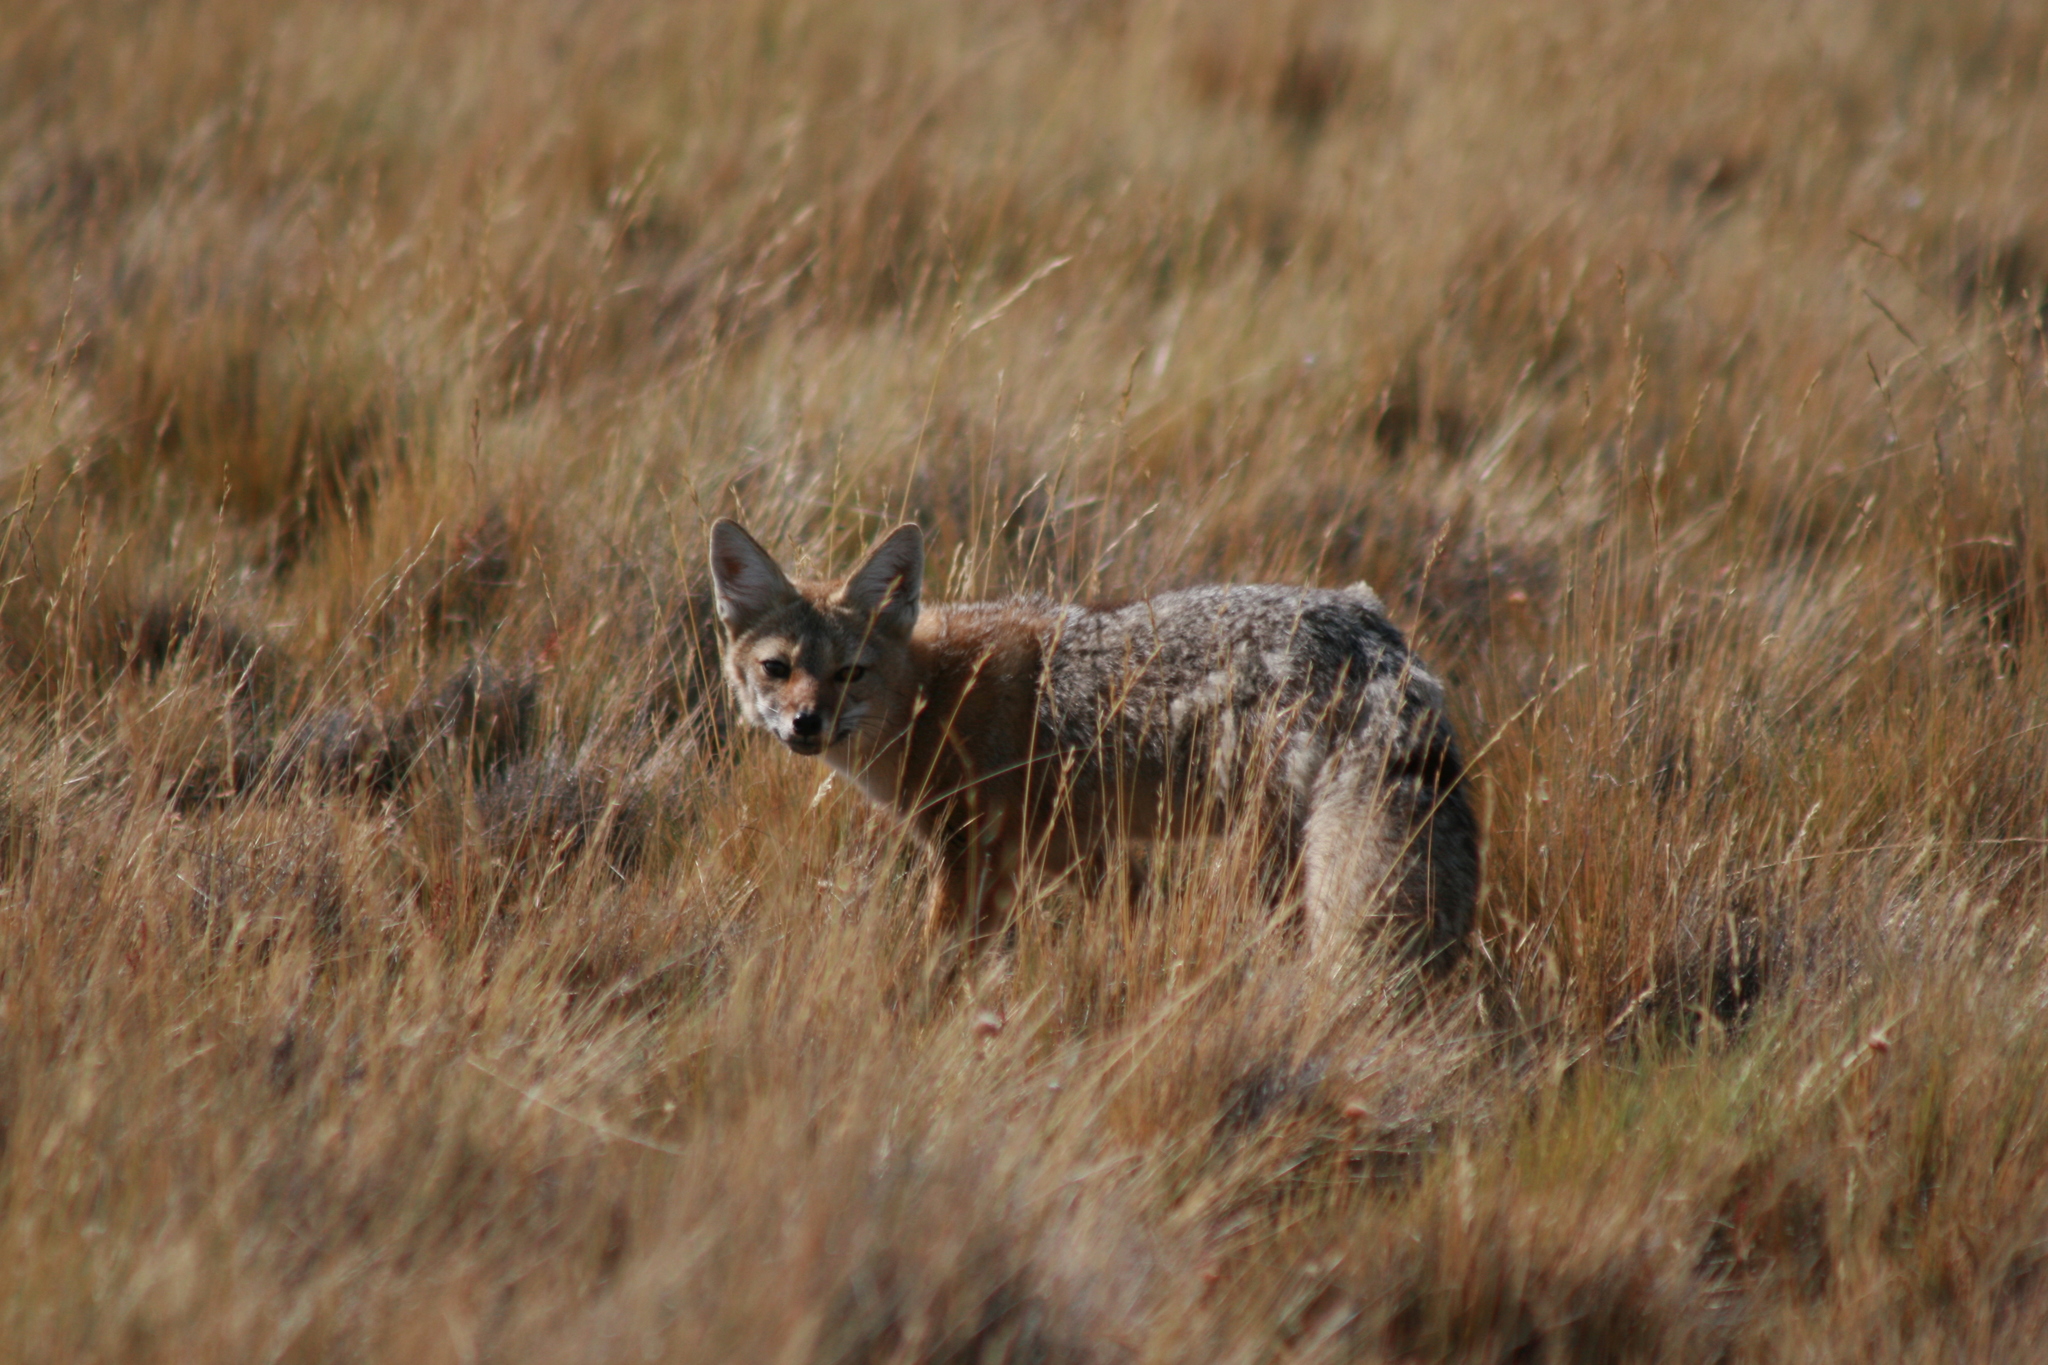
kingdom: Animalia
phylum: Chordata
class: Mammalia
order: Carnivora
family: Canidae
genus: Lycalopex
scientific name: Lycalopex gymnocercus
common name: Pampas fox
